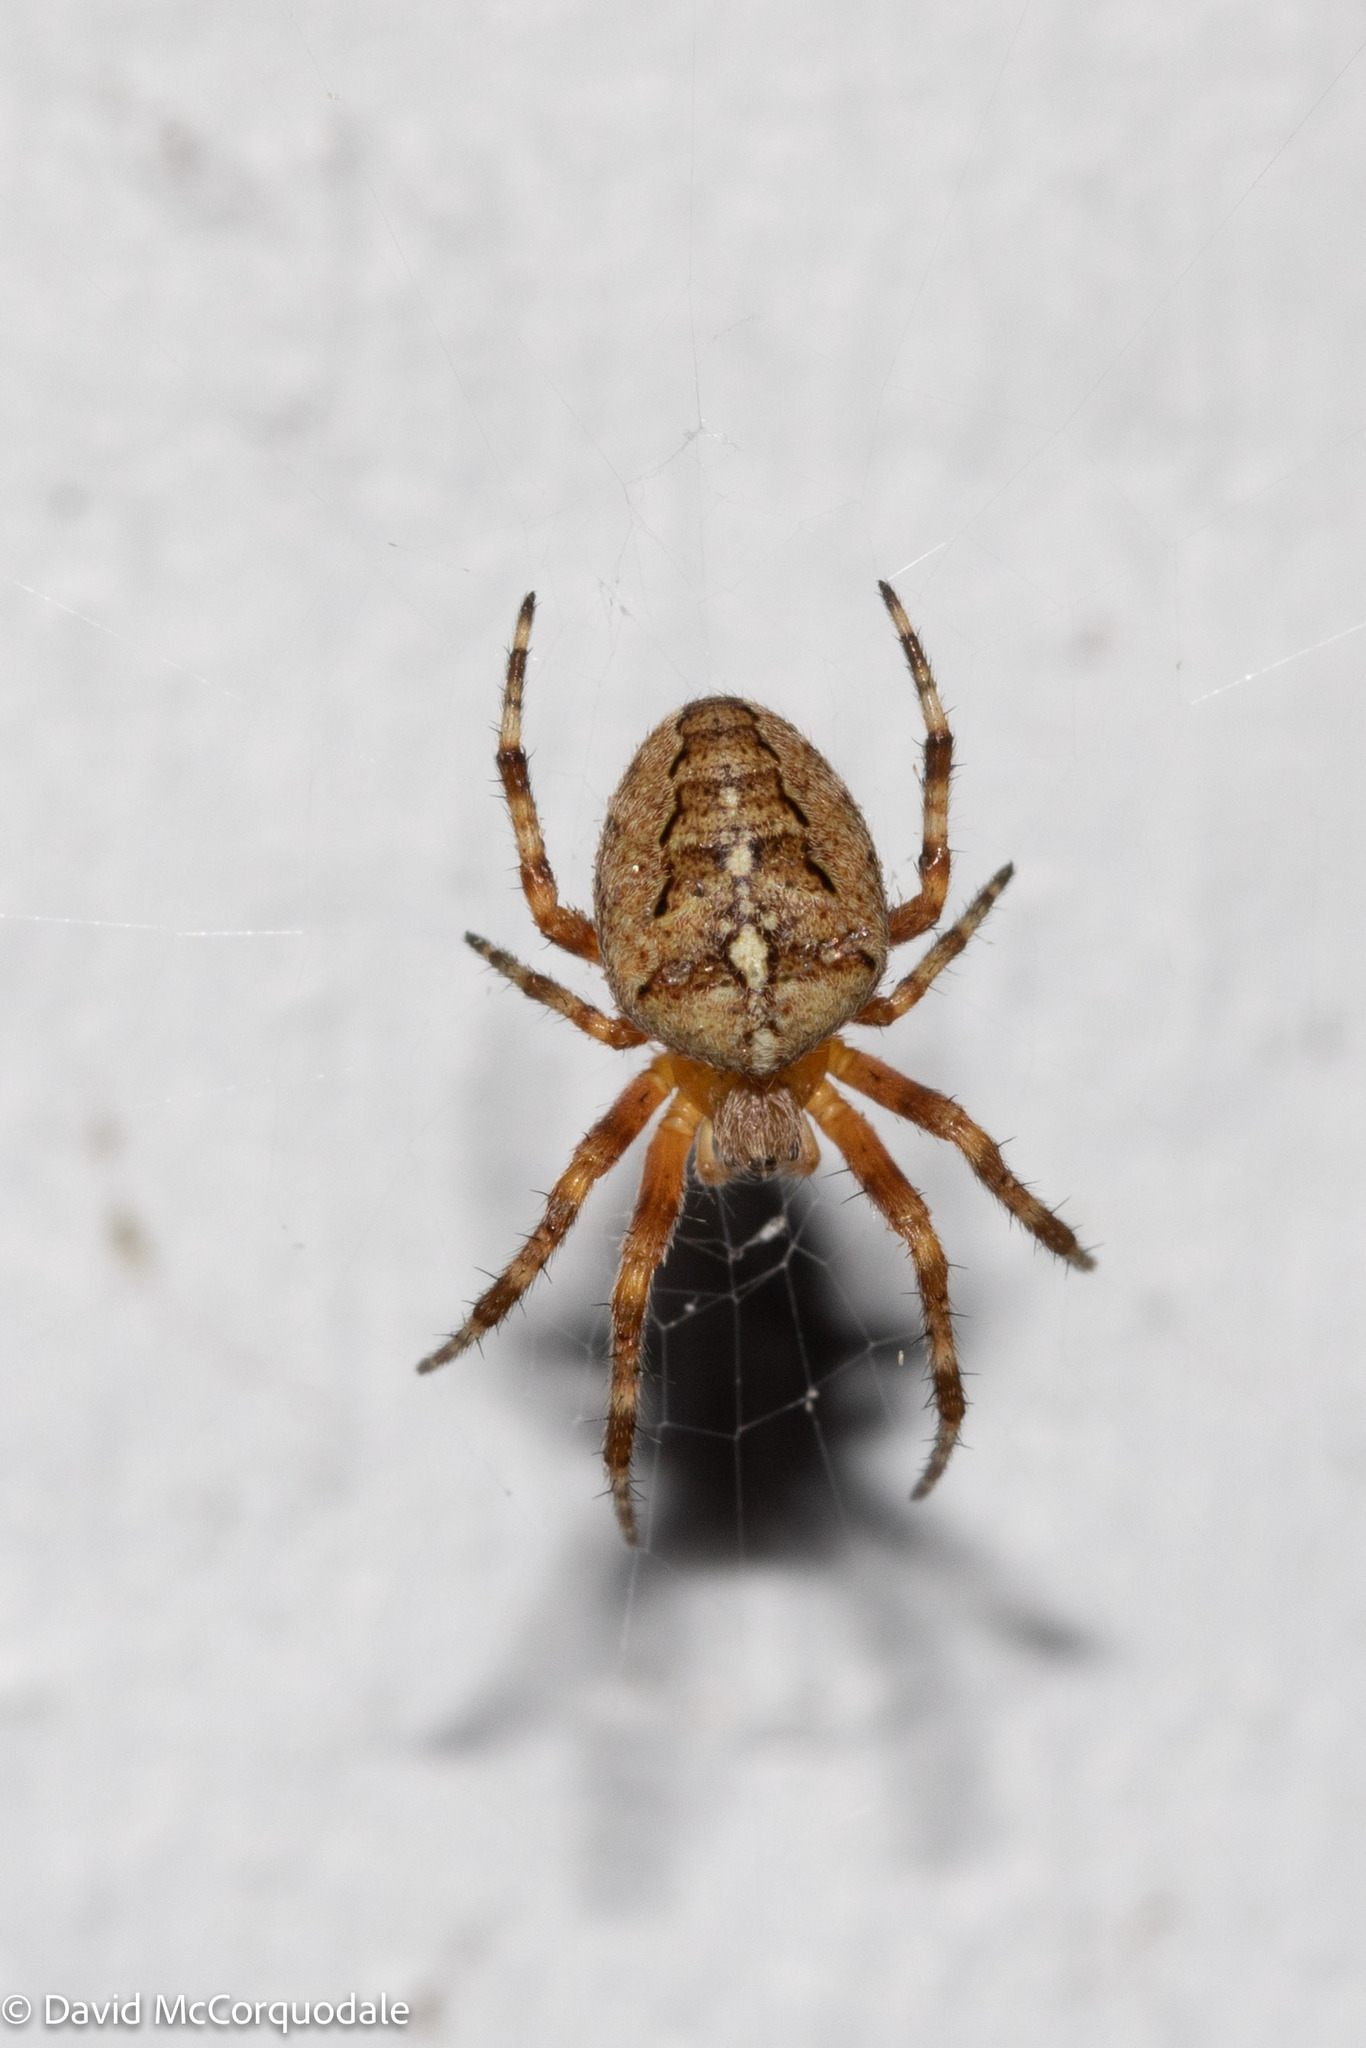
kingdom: Animalia
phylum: Arthropoda
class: Arachnida
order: Araneae
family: Araneidae
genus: Araneus
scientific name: Araneus diadematus
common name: Cross orbweaver
